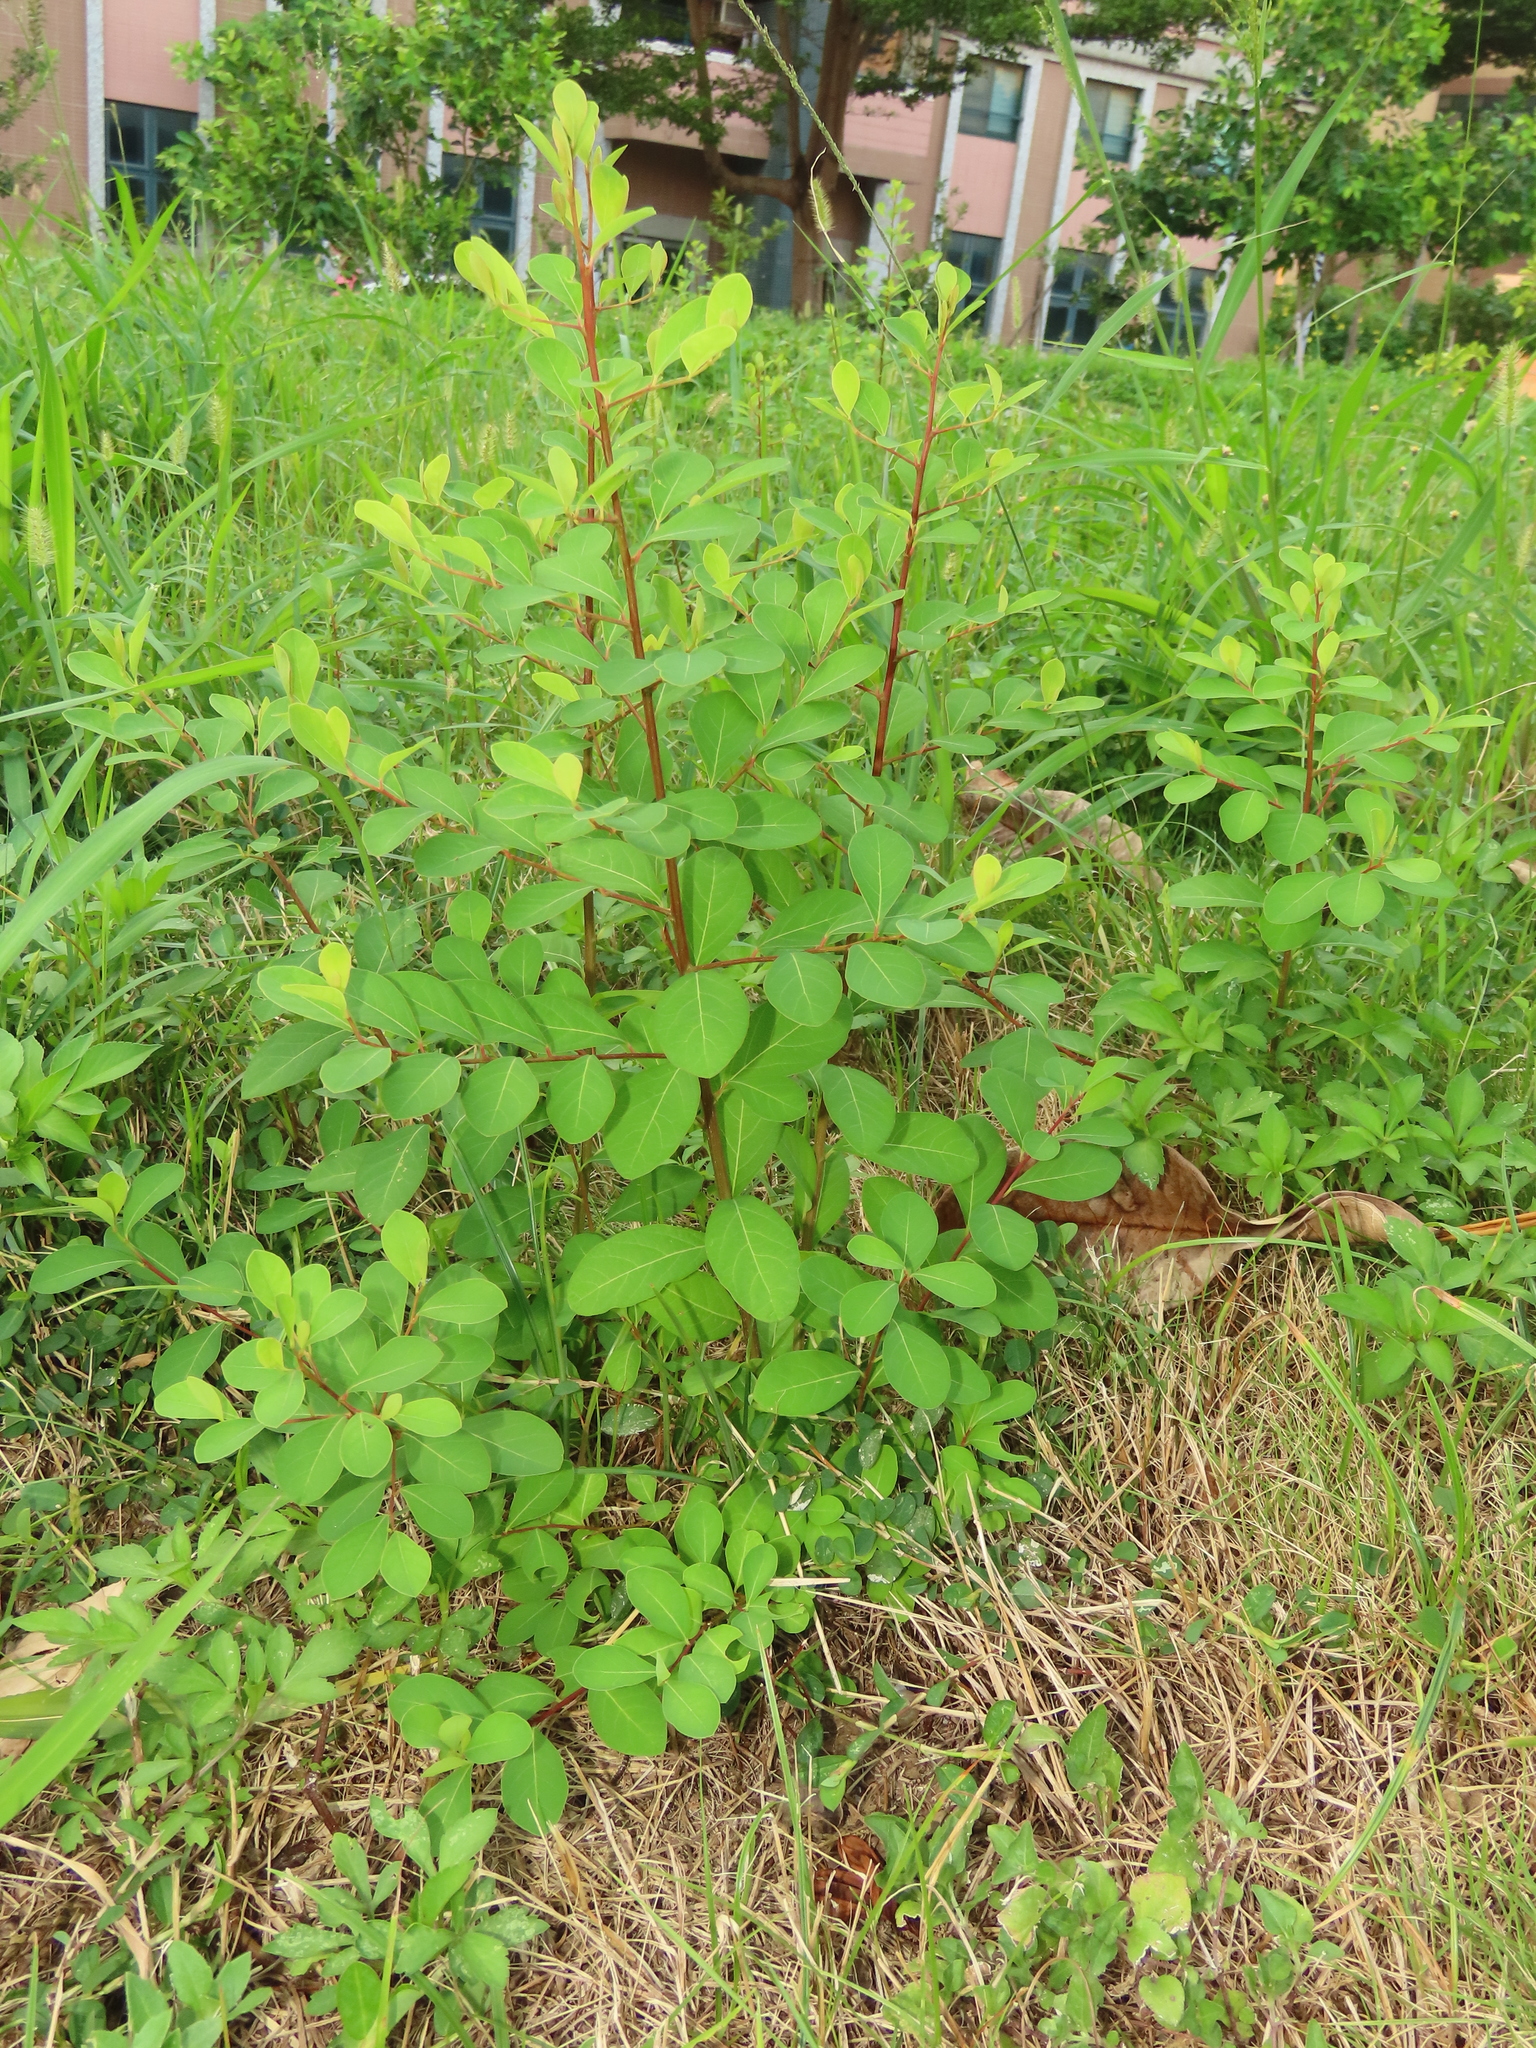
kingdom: Plantae
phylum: Tracheophyta
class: Magnoliopsida
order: Malpighiales
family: Phyllanthaceae
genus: Flueggea
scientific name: Flueggea virosa
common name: Common bushweed
